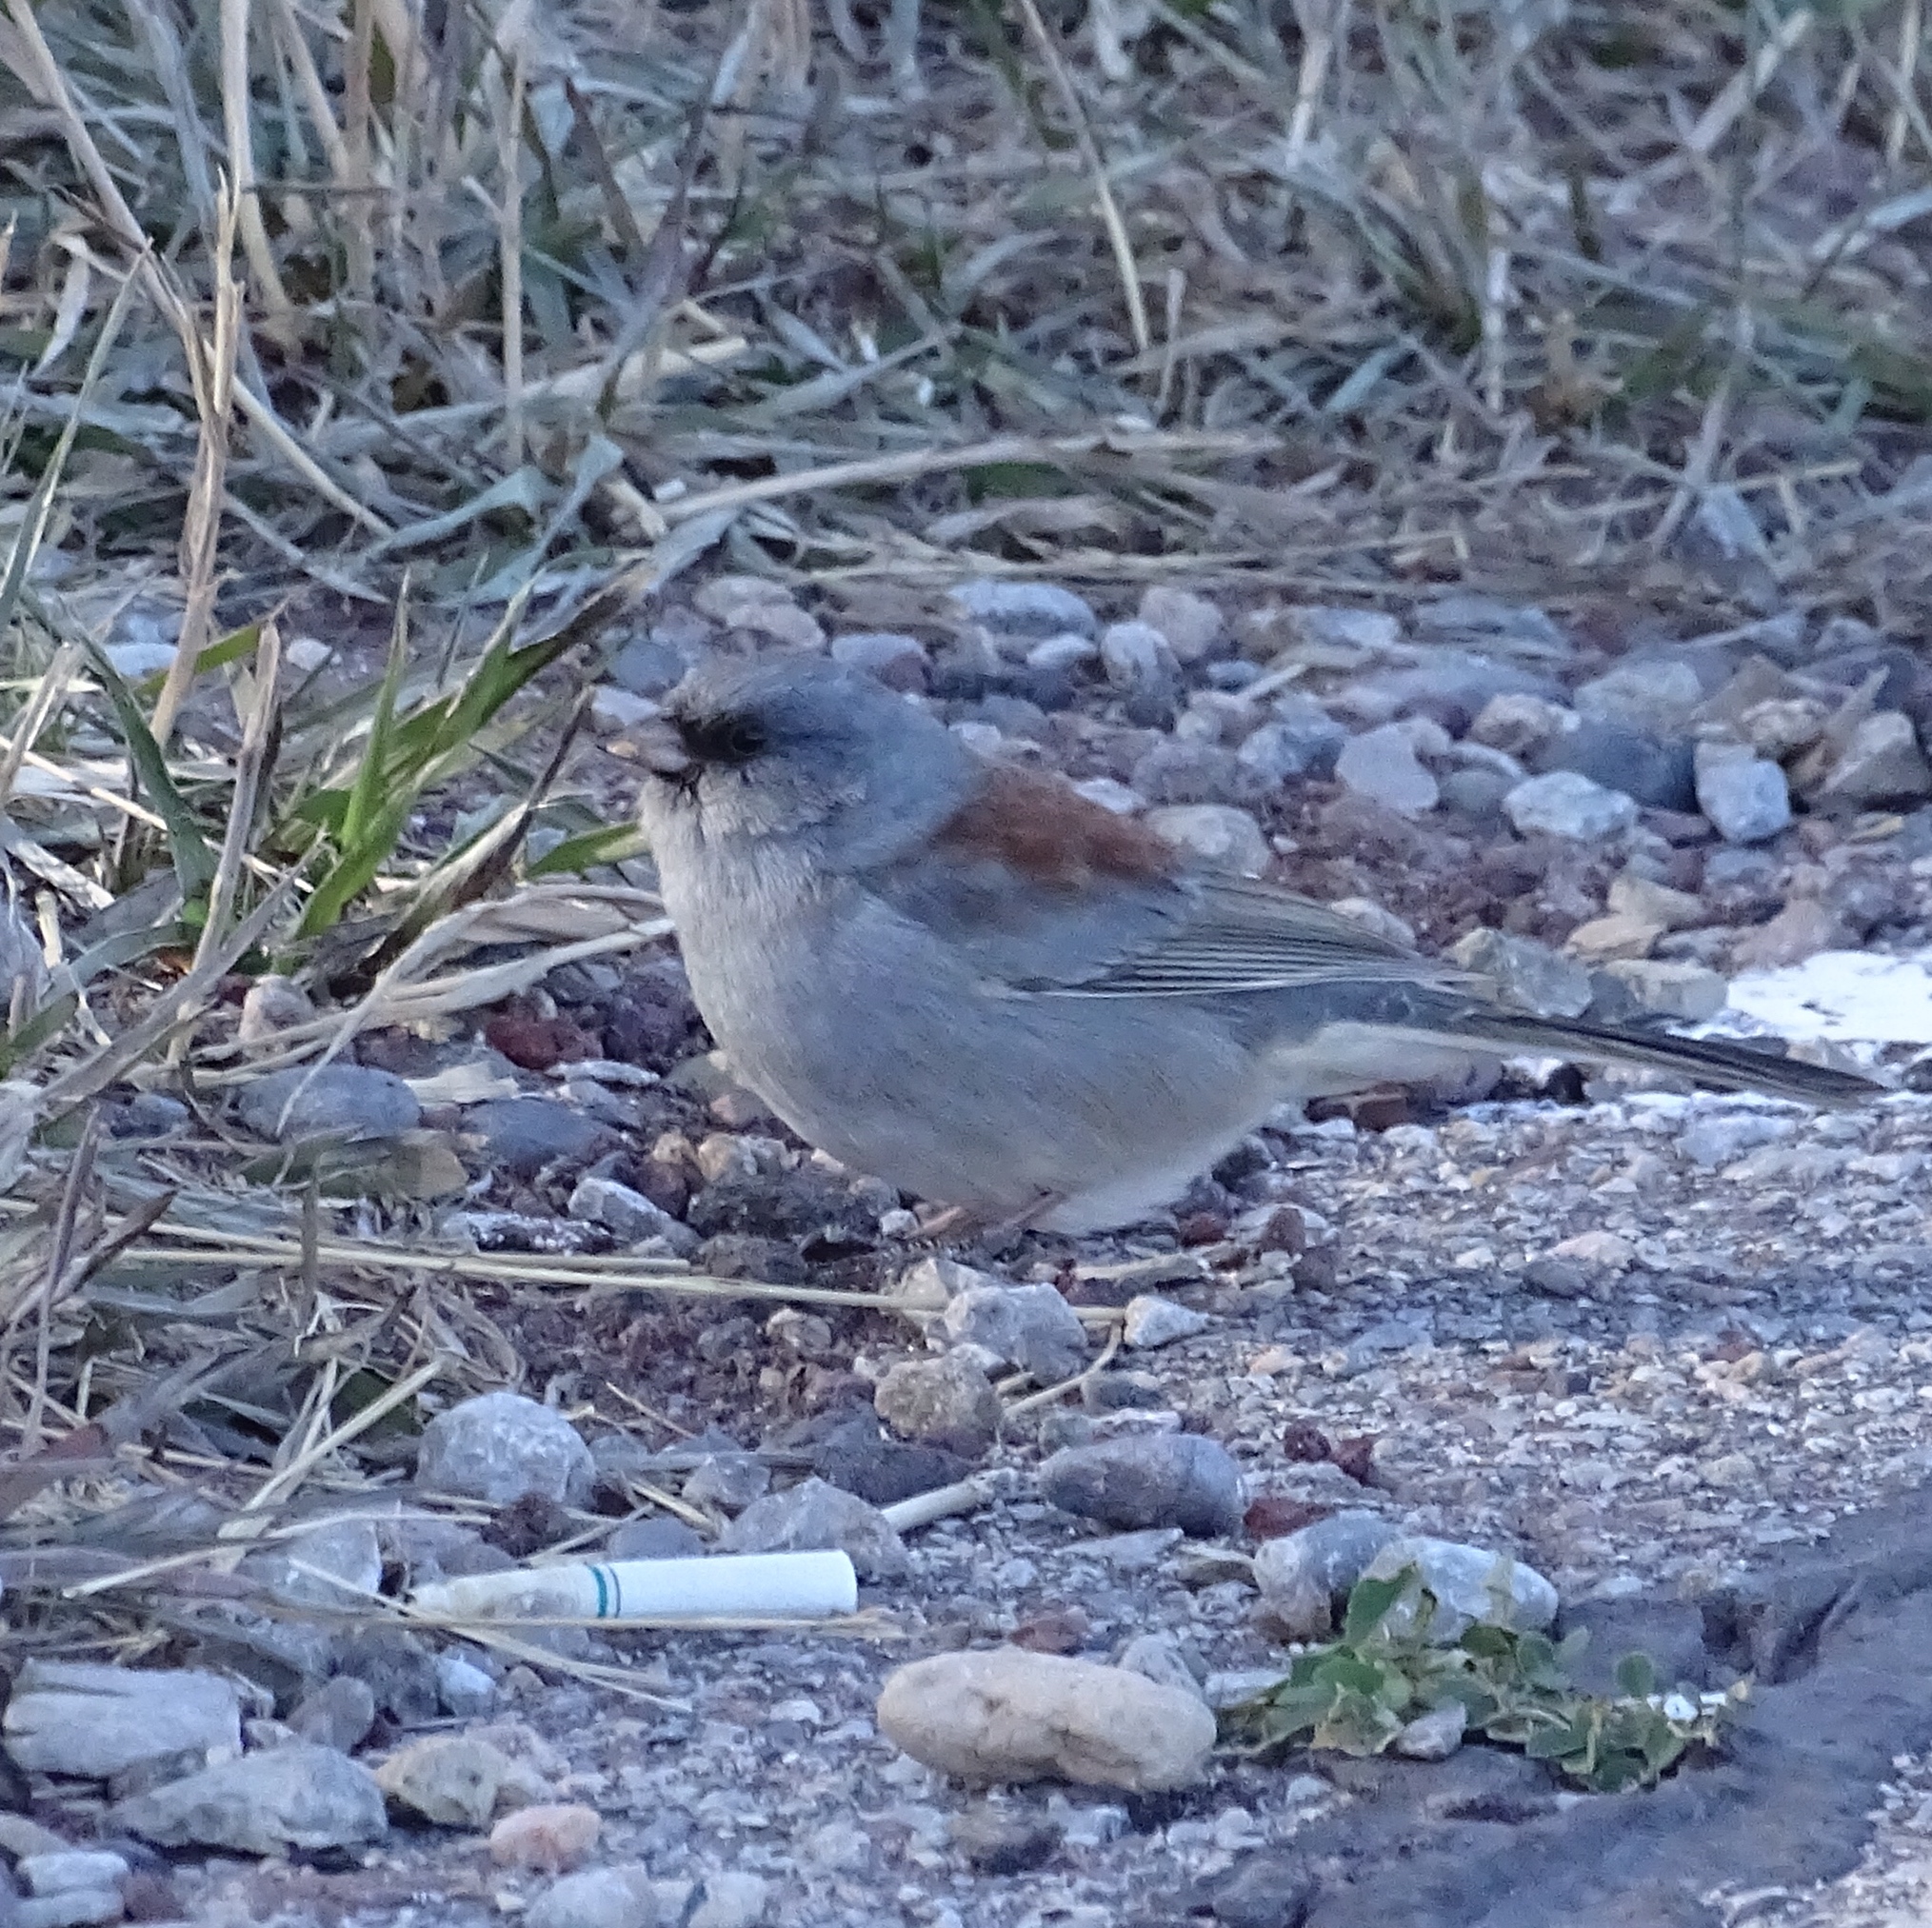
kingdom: Animalia
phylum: Chordata
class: Aves
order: Passeriformes
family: Passerellidae
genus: Junco
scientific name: Junco hyemalis
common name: Dark-eyed junco
